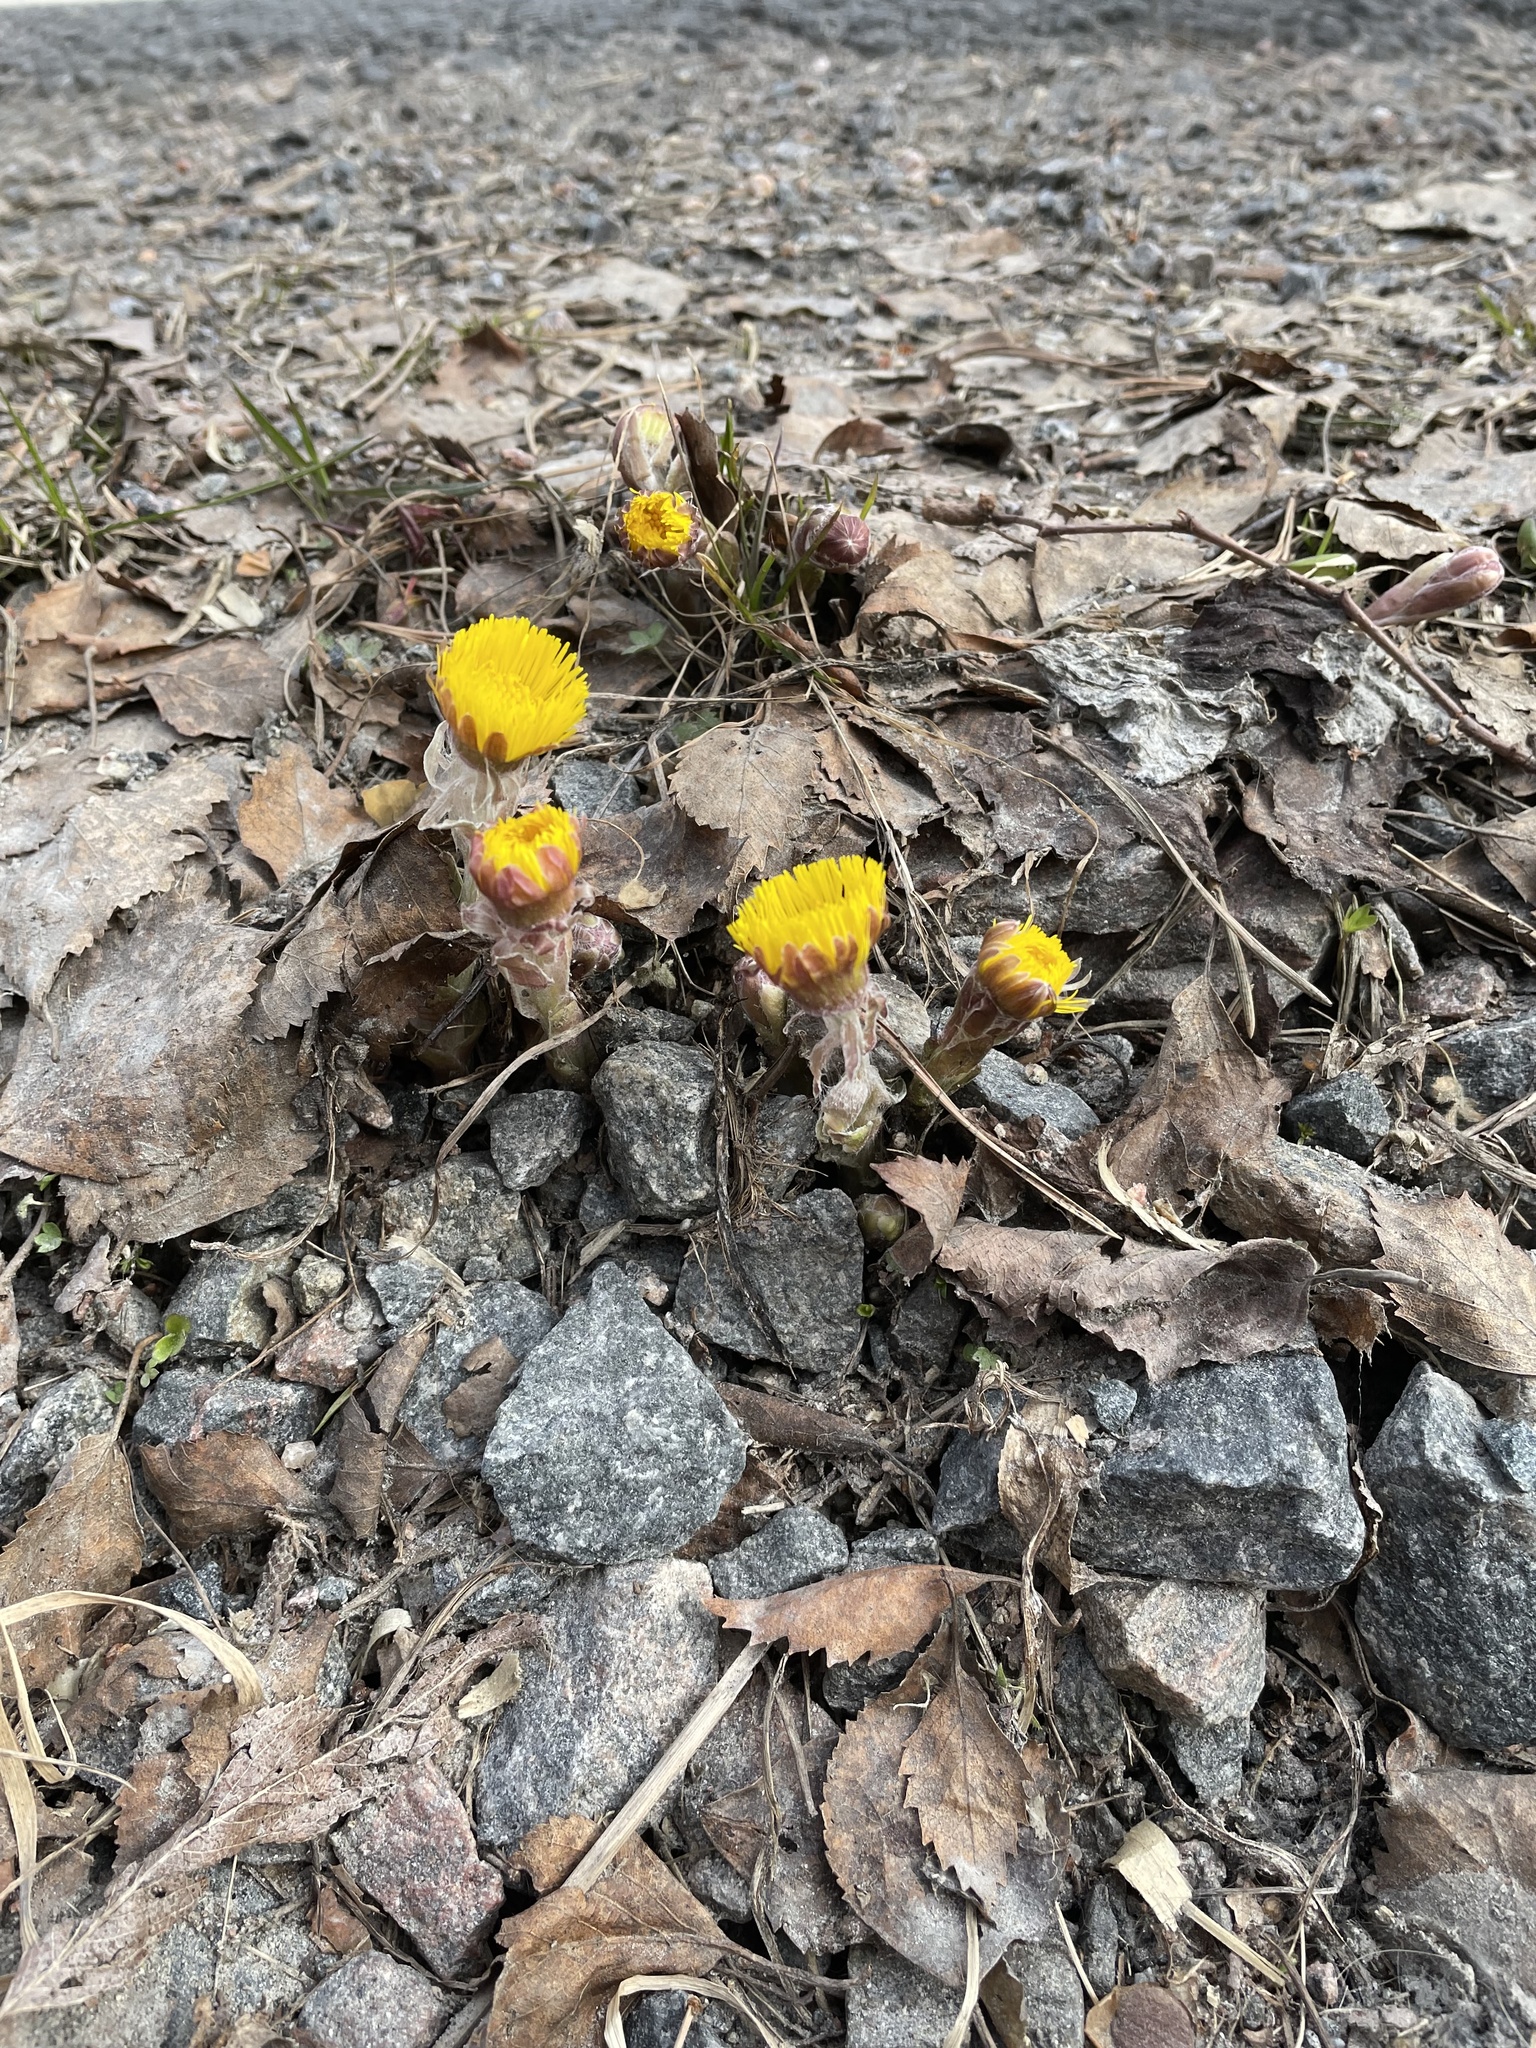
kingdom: Plantae
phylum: Tracheophyta
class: Magnoliopsida
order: Asterales
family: Asteraceae
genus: Tussilago
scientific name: Tussilago farfara
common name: Coltsfoot
